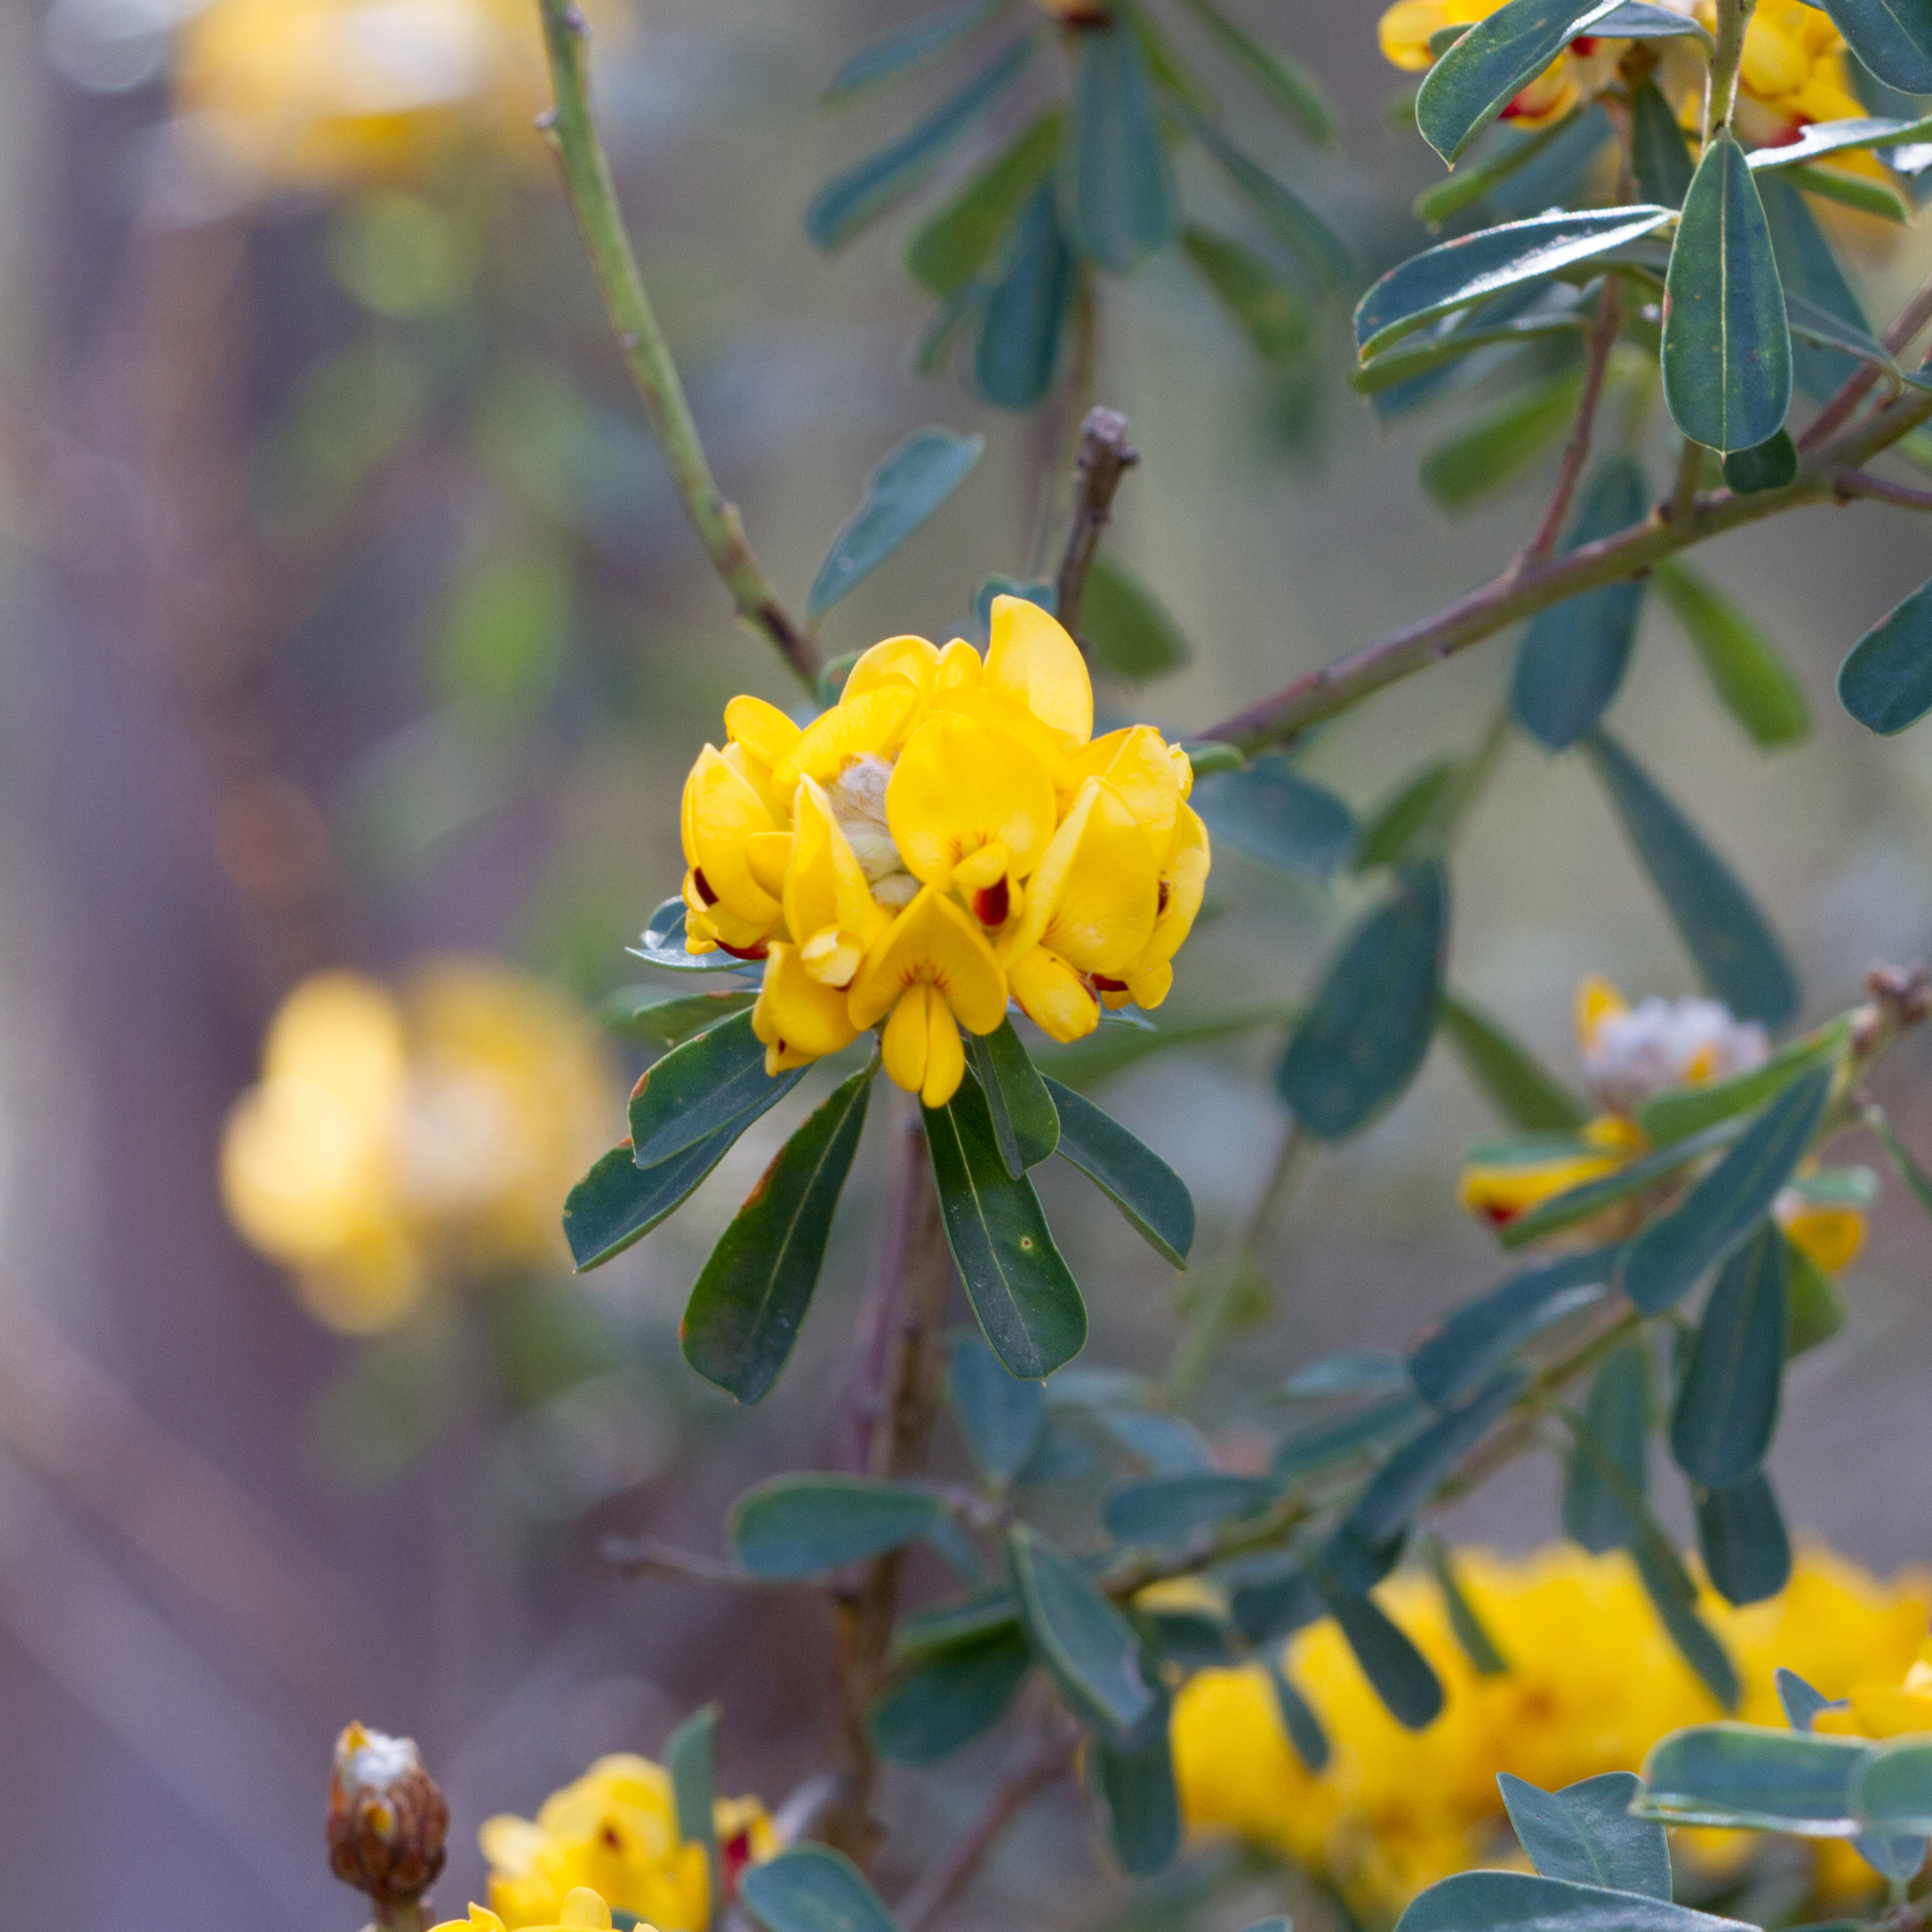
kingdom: Plantae
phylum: Tracheophyta
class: Magnoliopsida
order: Fabales
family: Fabaceae
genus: Pultenaea
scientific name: Pultenaea daphnoides
